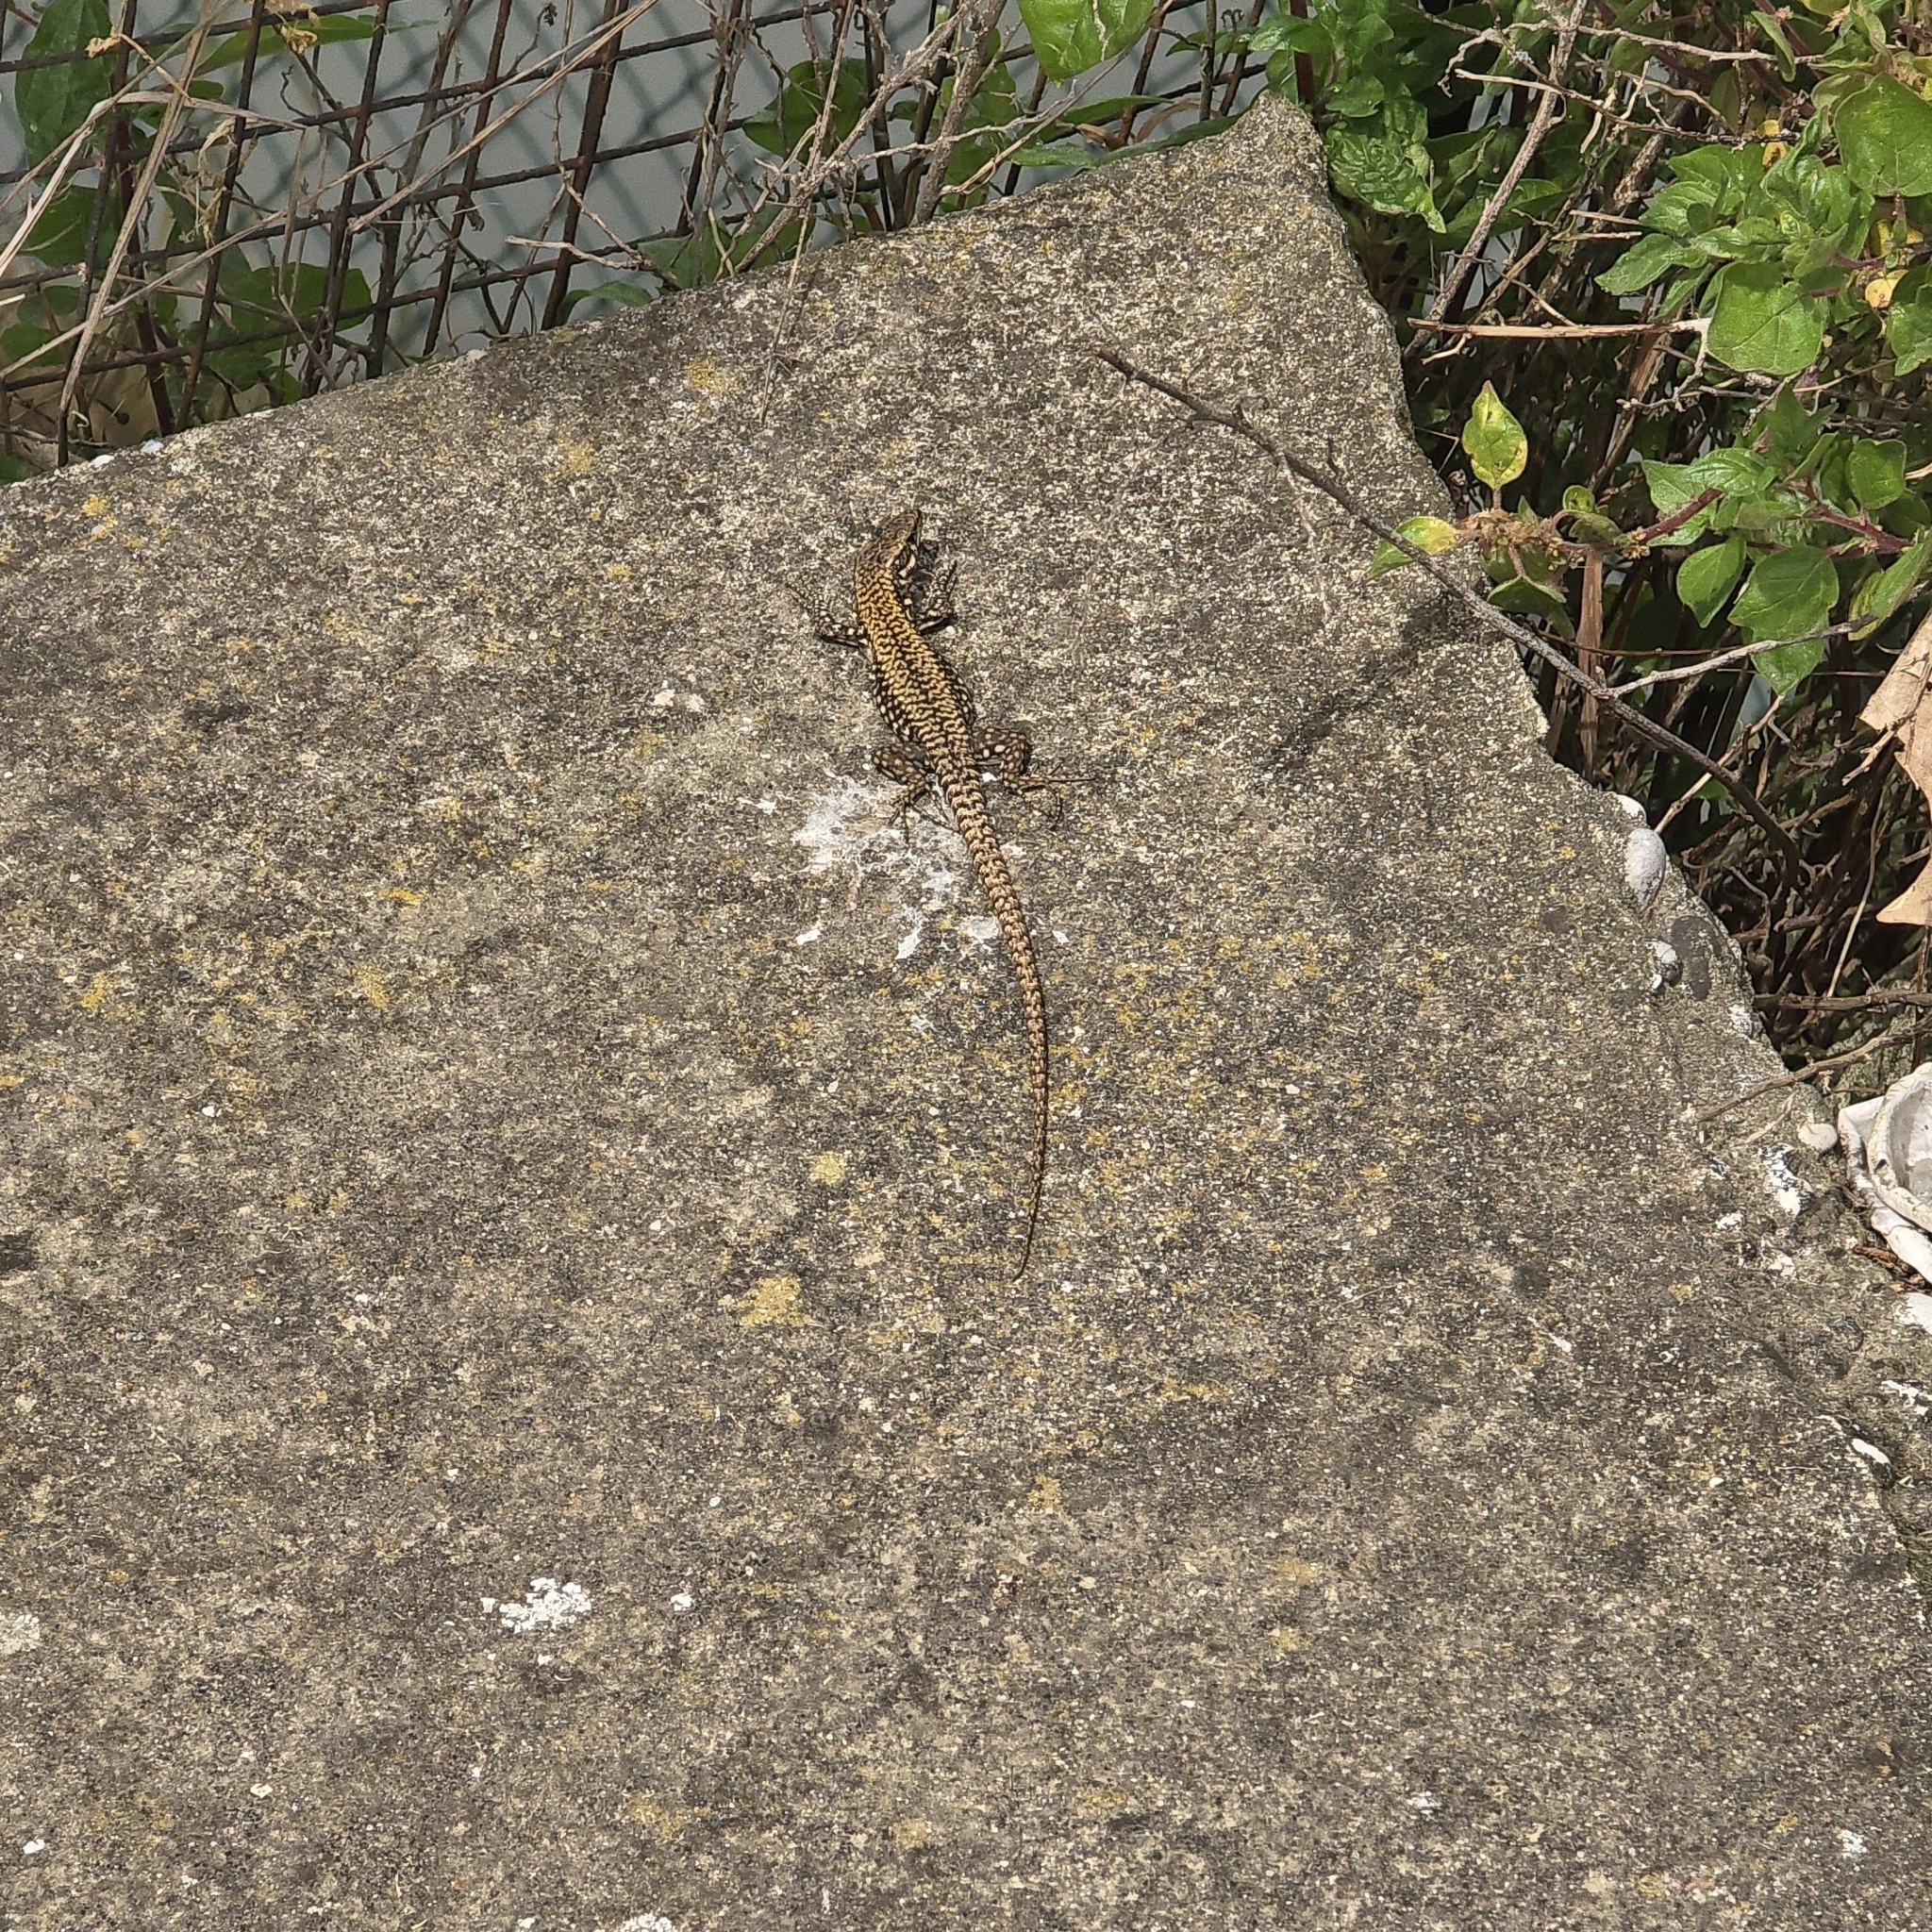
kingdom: Animalia
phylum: Chordata
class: Squamata
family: Lacertidae
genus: Podarcis
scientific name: Podarcis muralis
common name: Common wall lizard
